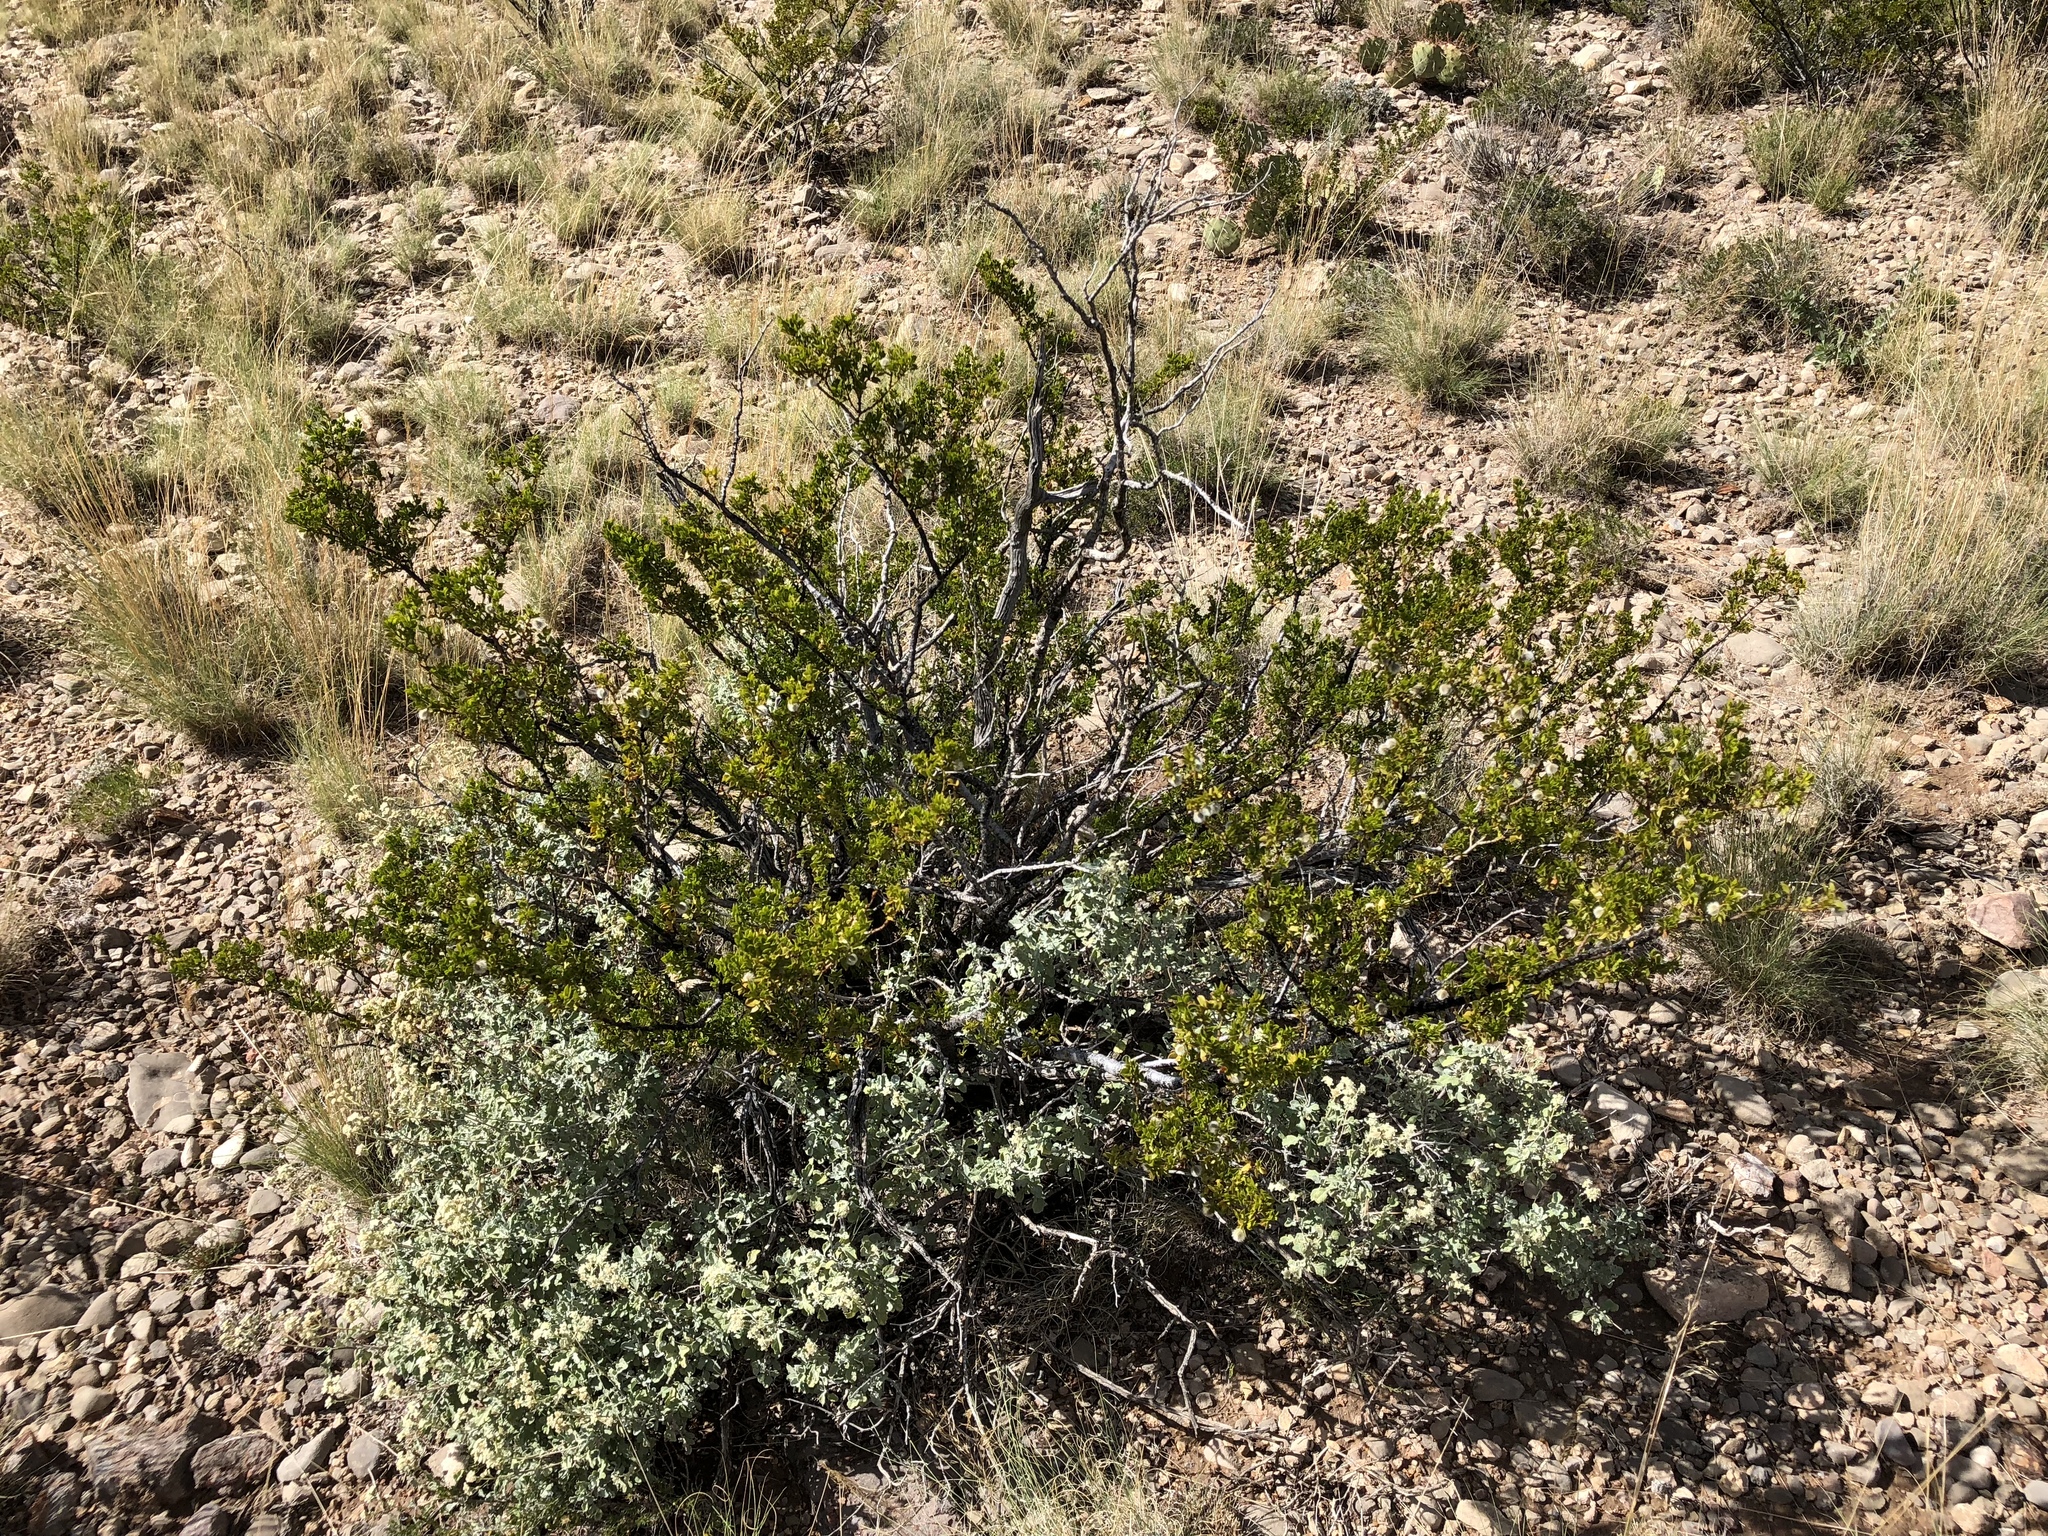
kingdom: Plantae
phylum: Tracheophyta
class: Magnoliopsida
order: Zygophyllales
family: Zygophyllaceae
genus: Larrea
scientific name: Larrea tridentata
